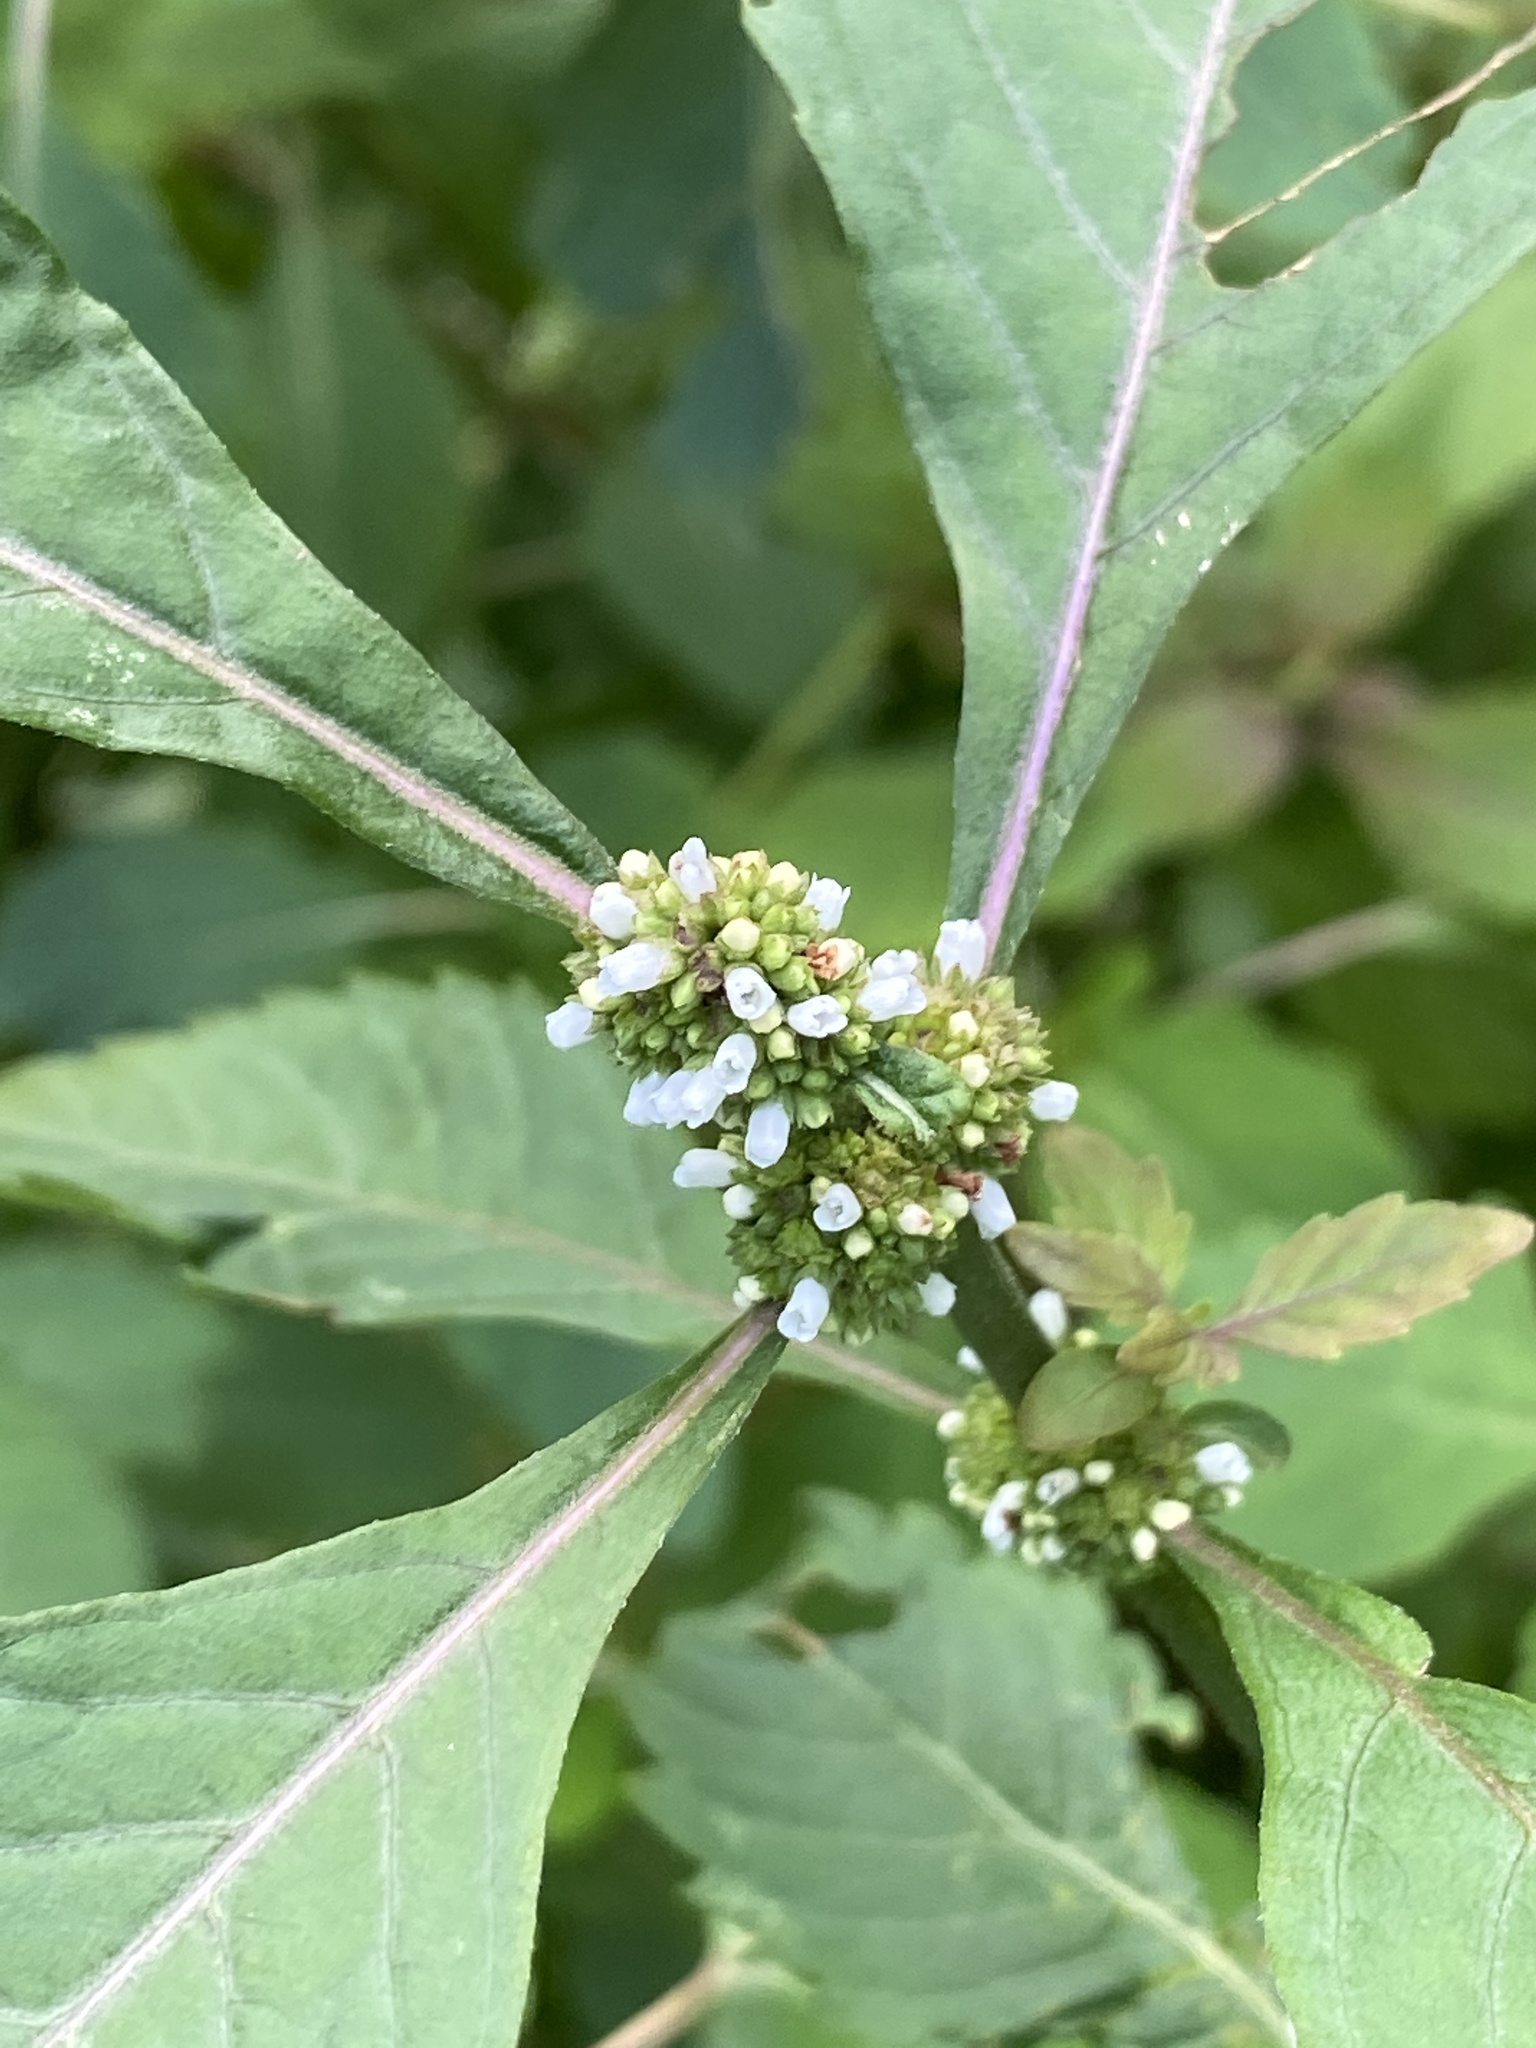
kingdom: Plantae
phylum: Tracheophyta
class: Magnoliopsida
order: Lamiales
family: Lamiaceae
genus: Lycopus
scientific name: Lycopus uniflorus
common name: Northern bugleweed
